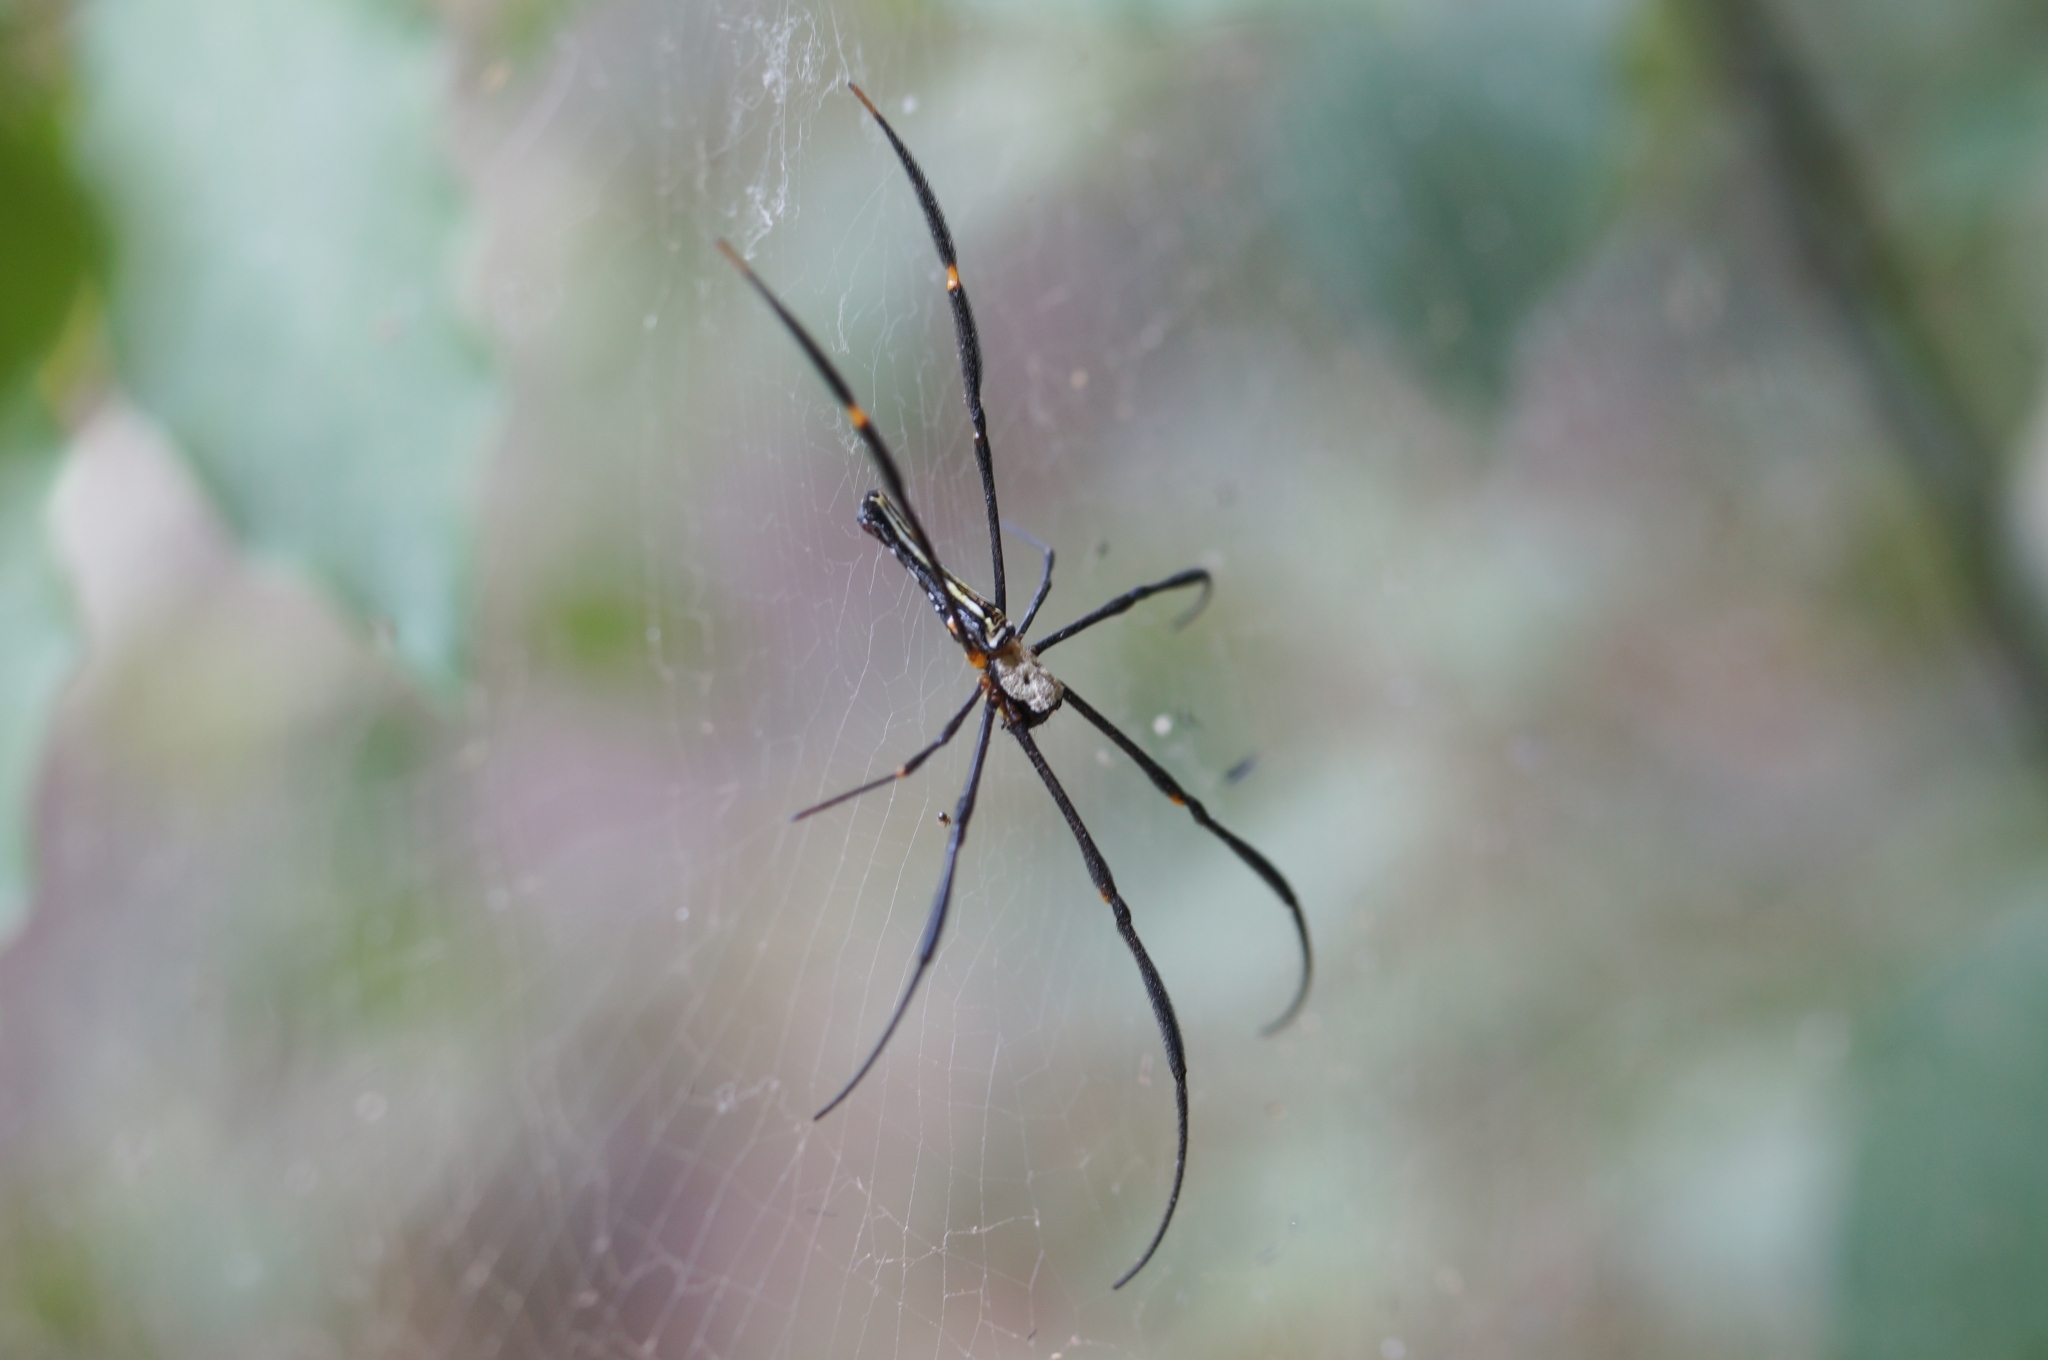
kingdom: Animalia
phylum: Arthropoda
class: Arachnida
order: Araneae
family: Araneidae
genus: Nephila
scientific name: Nephila pilipes
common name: Giant golden orb weaver
